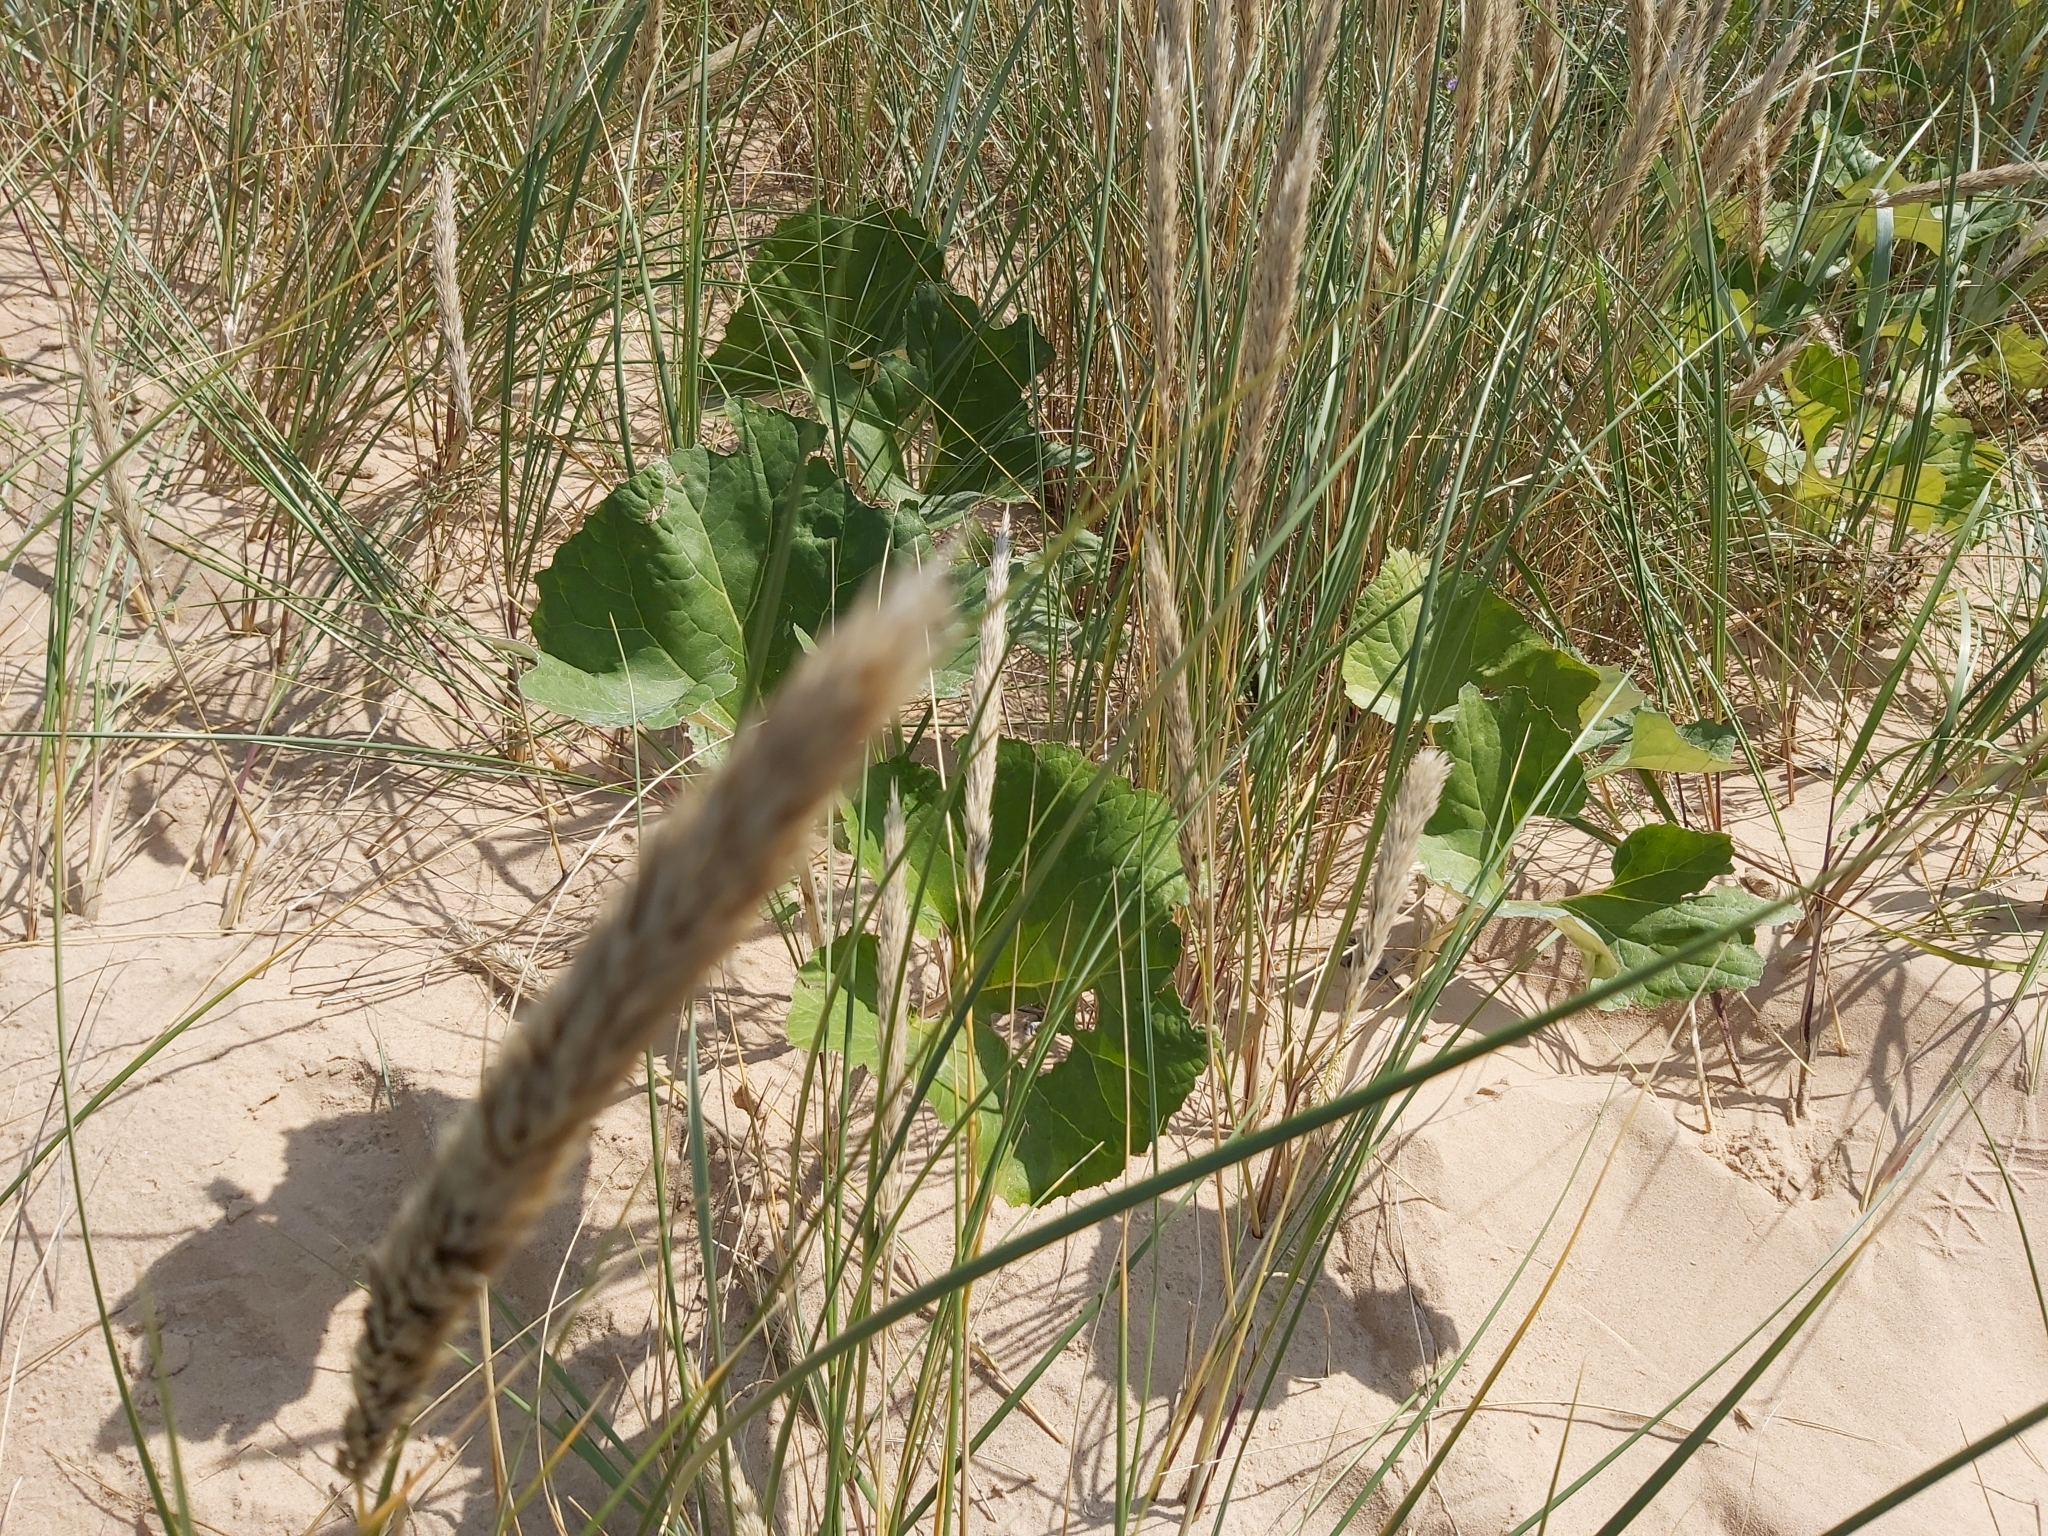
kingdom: Plantae
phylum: Tracheophyta
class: Magnoliopsida
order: Asterales
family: Asteraceae
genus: Petasites
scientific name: Petasites spurius
